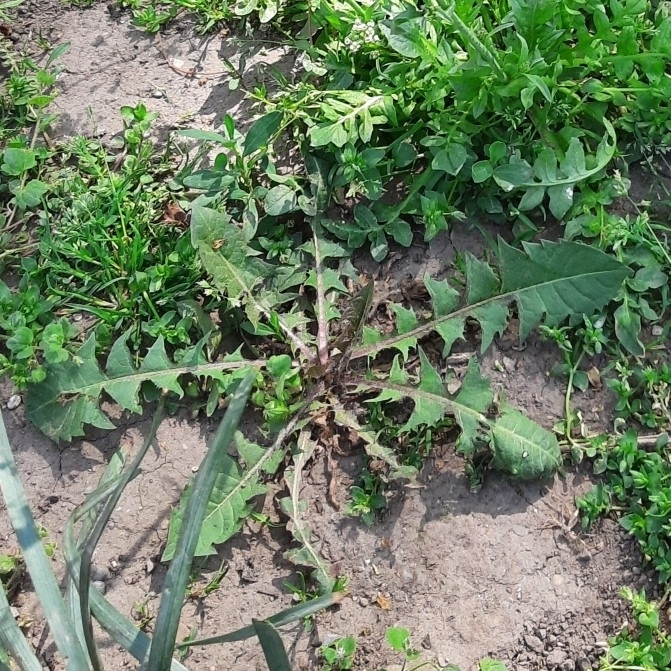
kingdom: Plantae
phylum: Tracheophyta
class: Magnoliopsida
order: Asterales
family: Asteraceae
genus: Taraxacum
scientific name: Taraxacum
